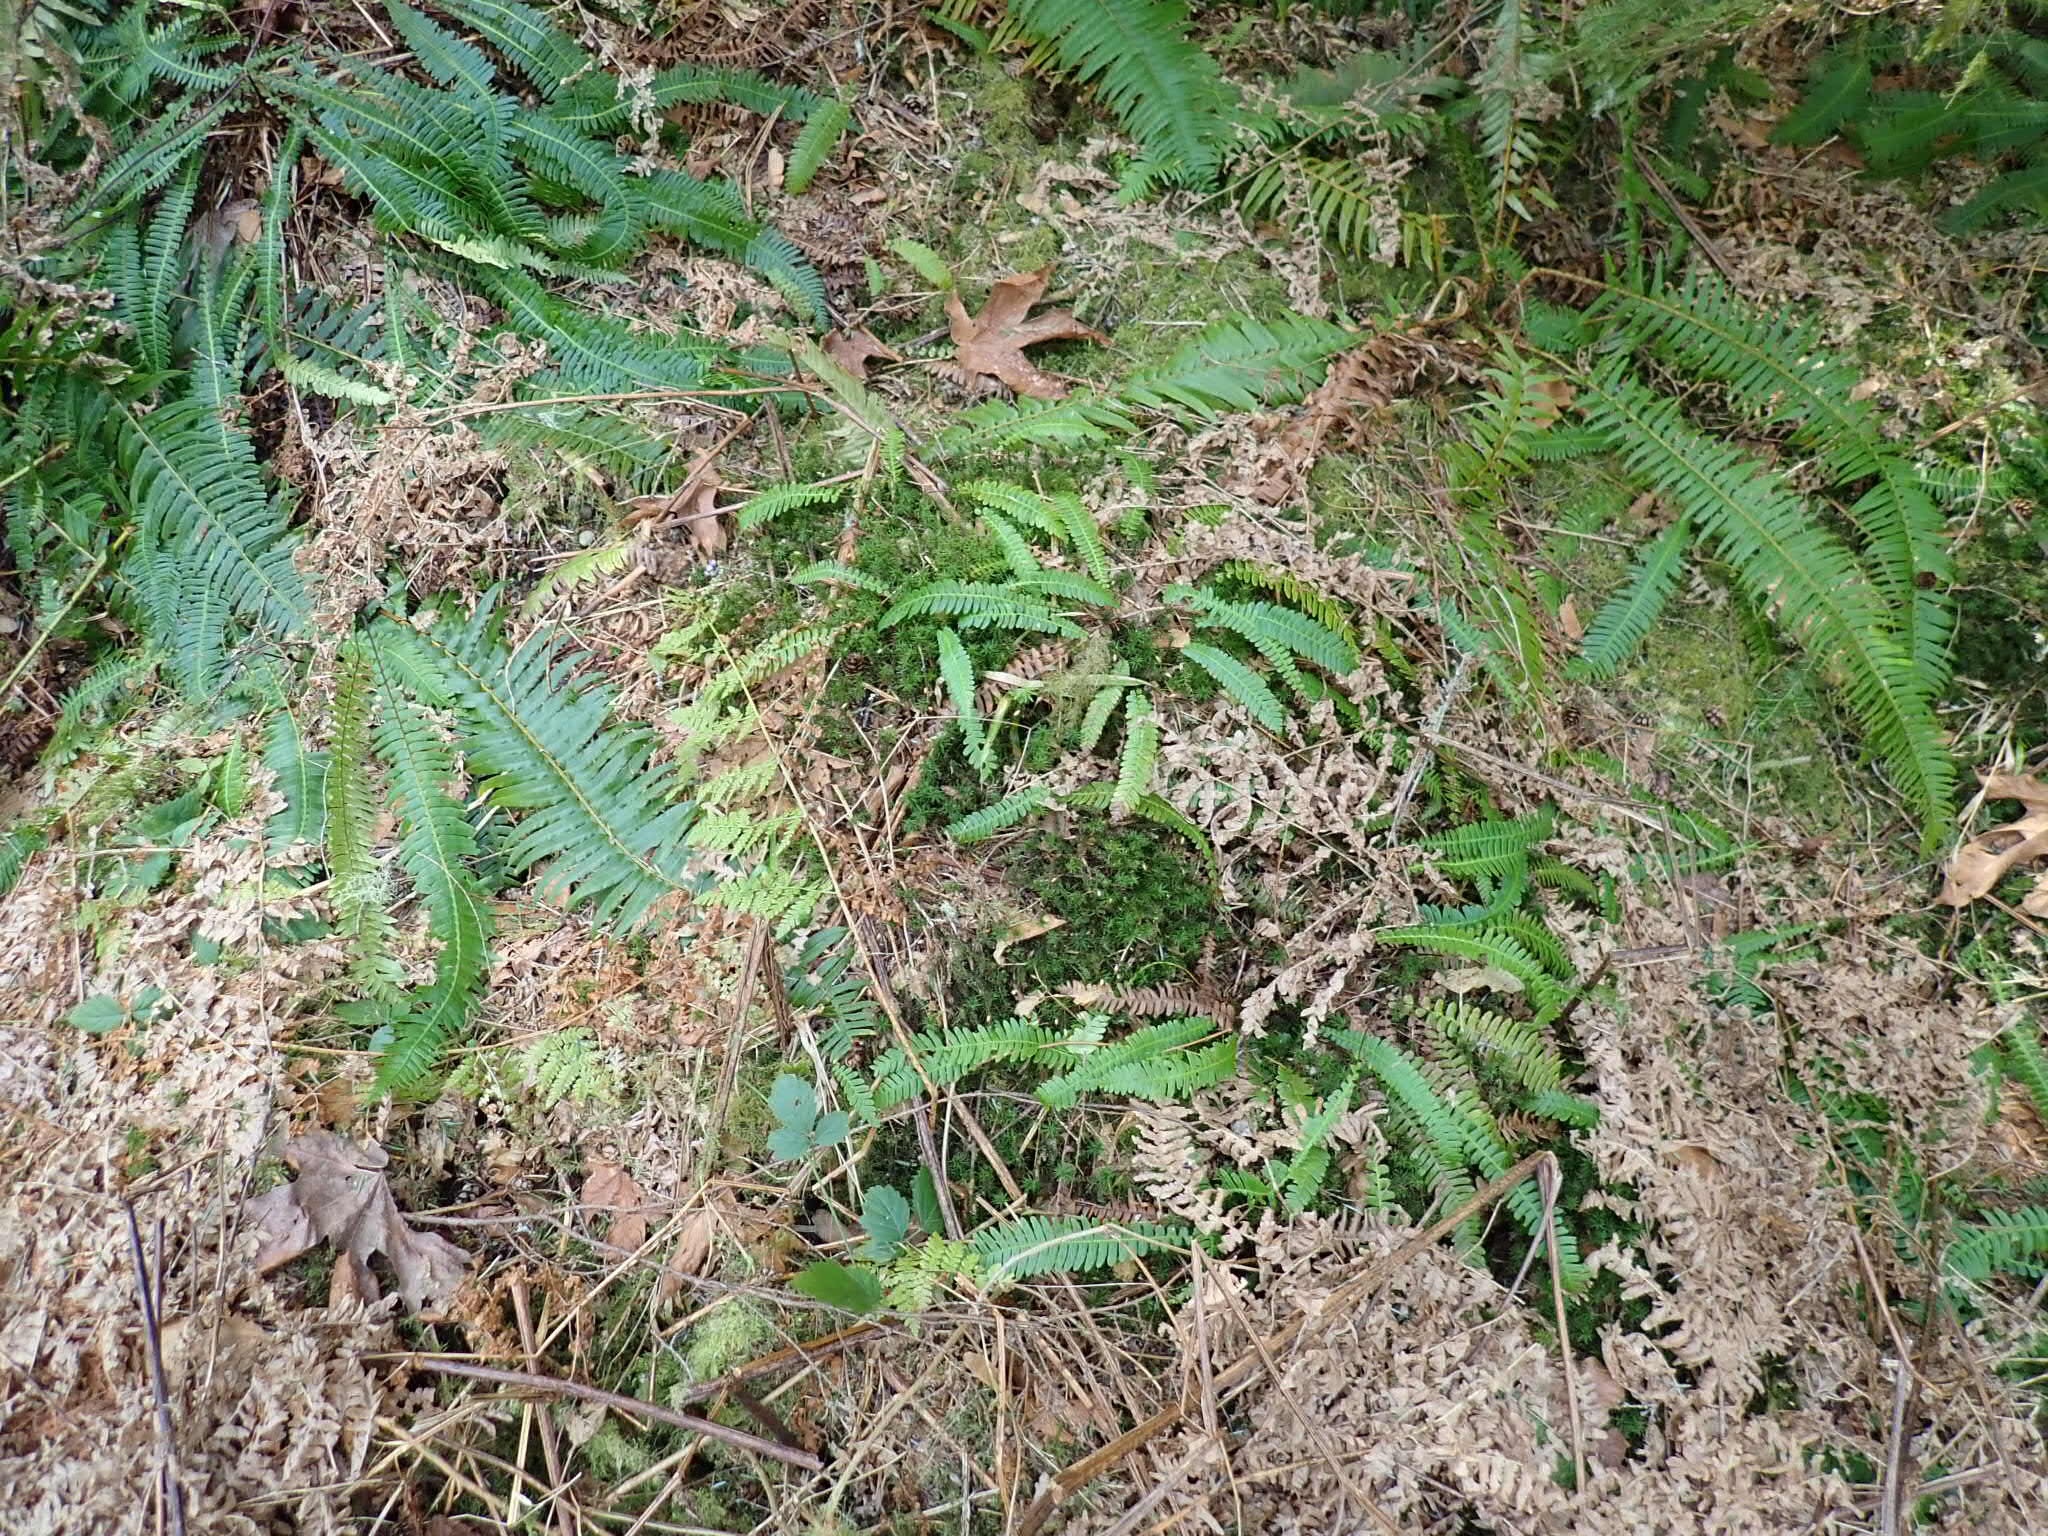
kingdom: Plantae
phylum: Tracheophyta
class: Polypodiopsida
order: Polypodiales
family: Blechnaceae
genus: Struthiopteris
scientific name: Struthiopteris spicant
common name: Deer fern
